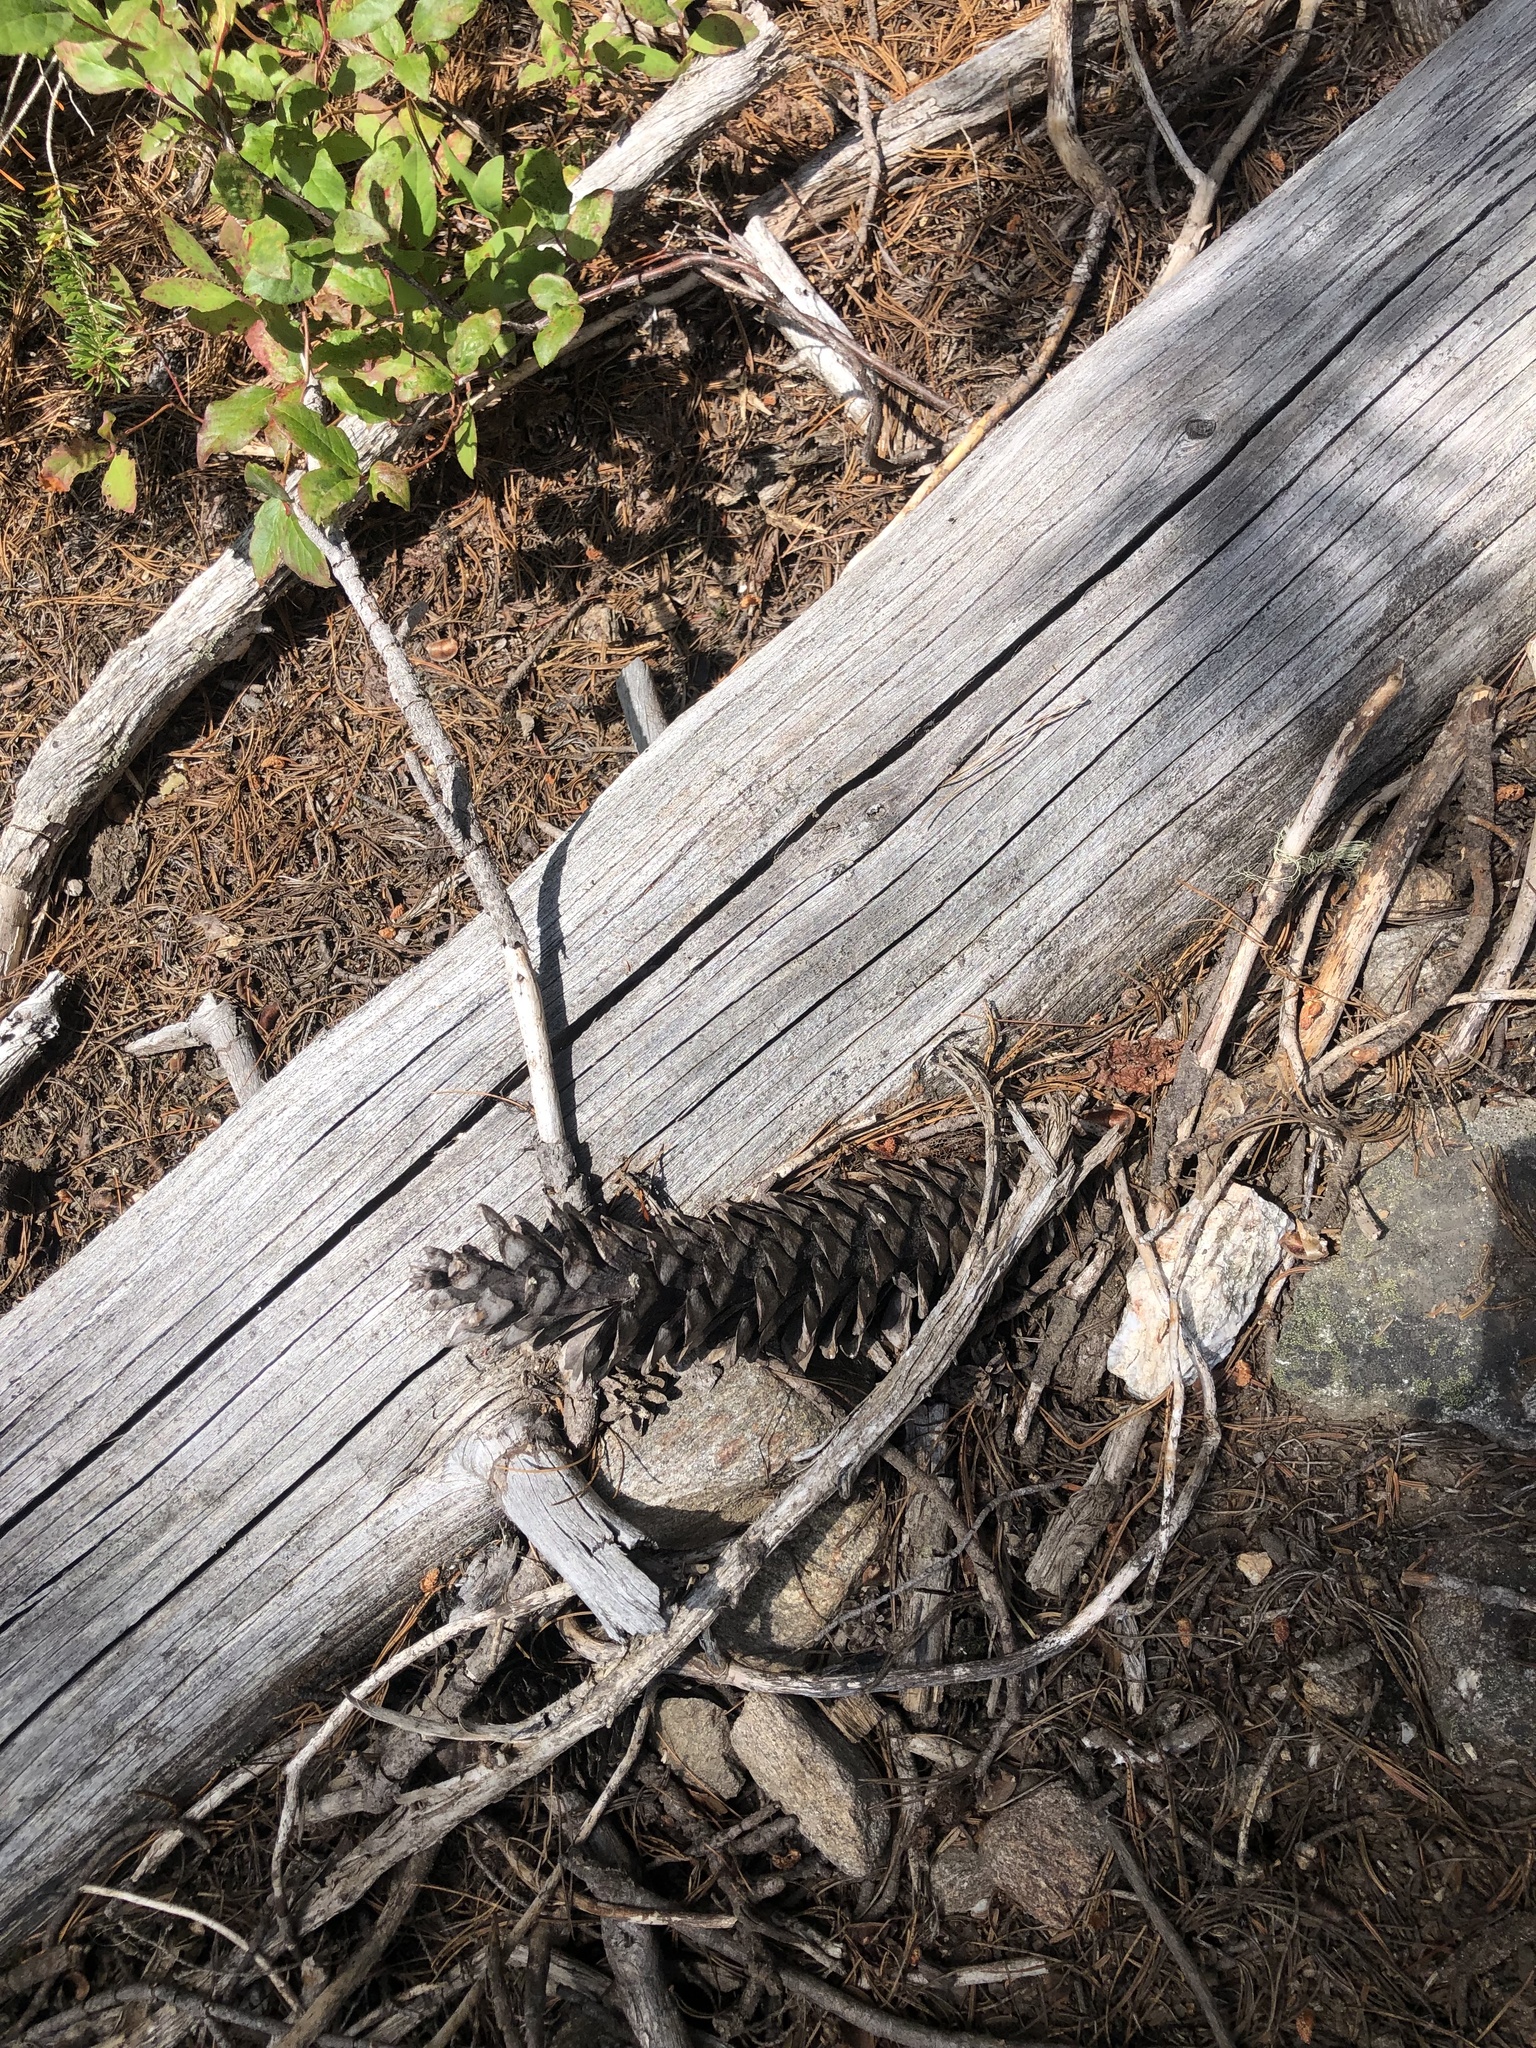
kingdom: Plantae
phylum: Tracheophyta
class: Pinopsida
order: Pinales
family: Pinaceae
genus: Pinus
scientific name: Pinus monticola
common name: Western white pine
